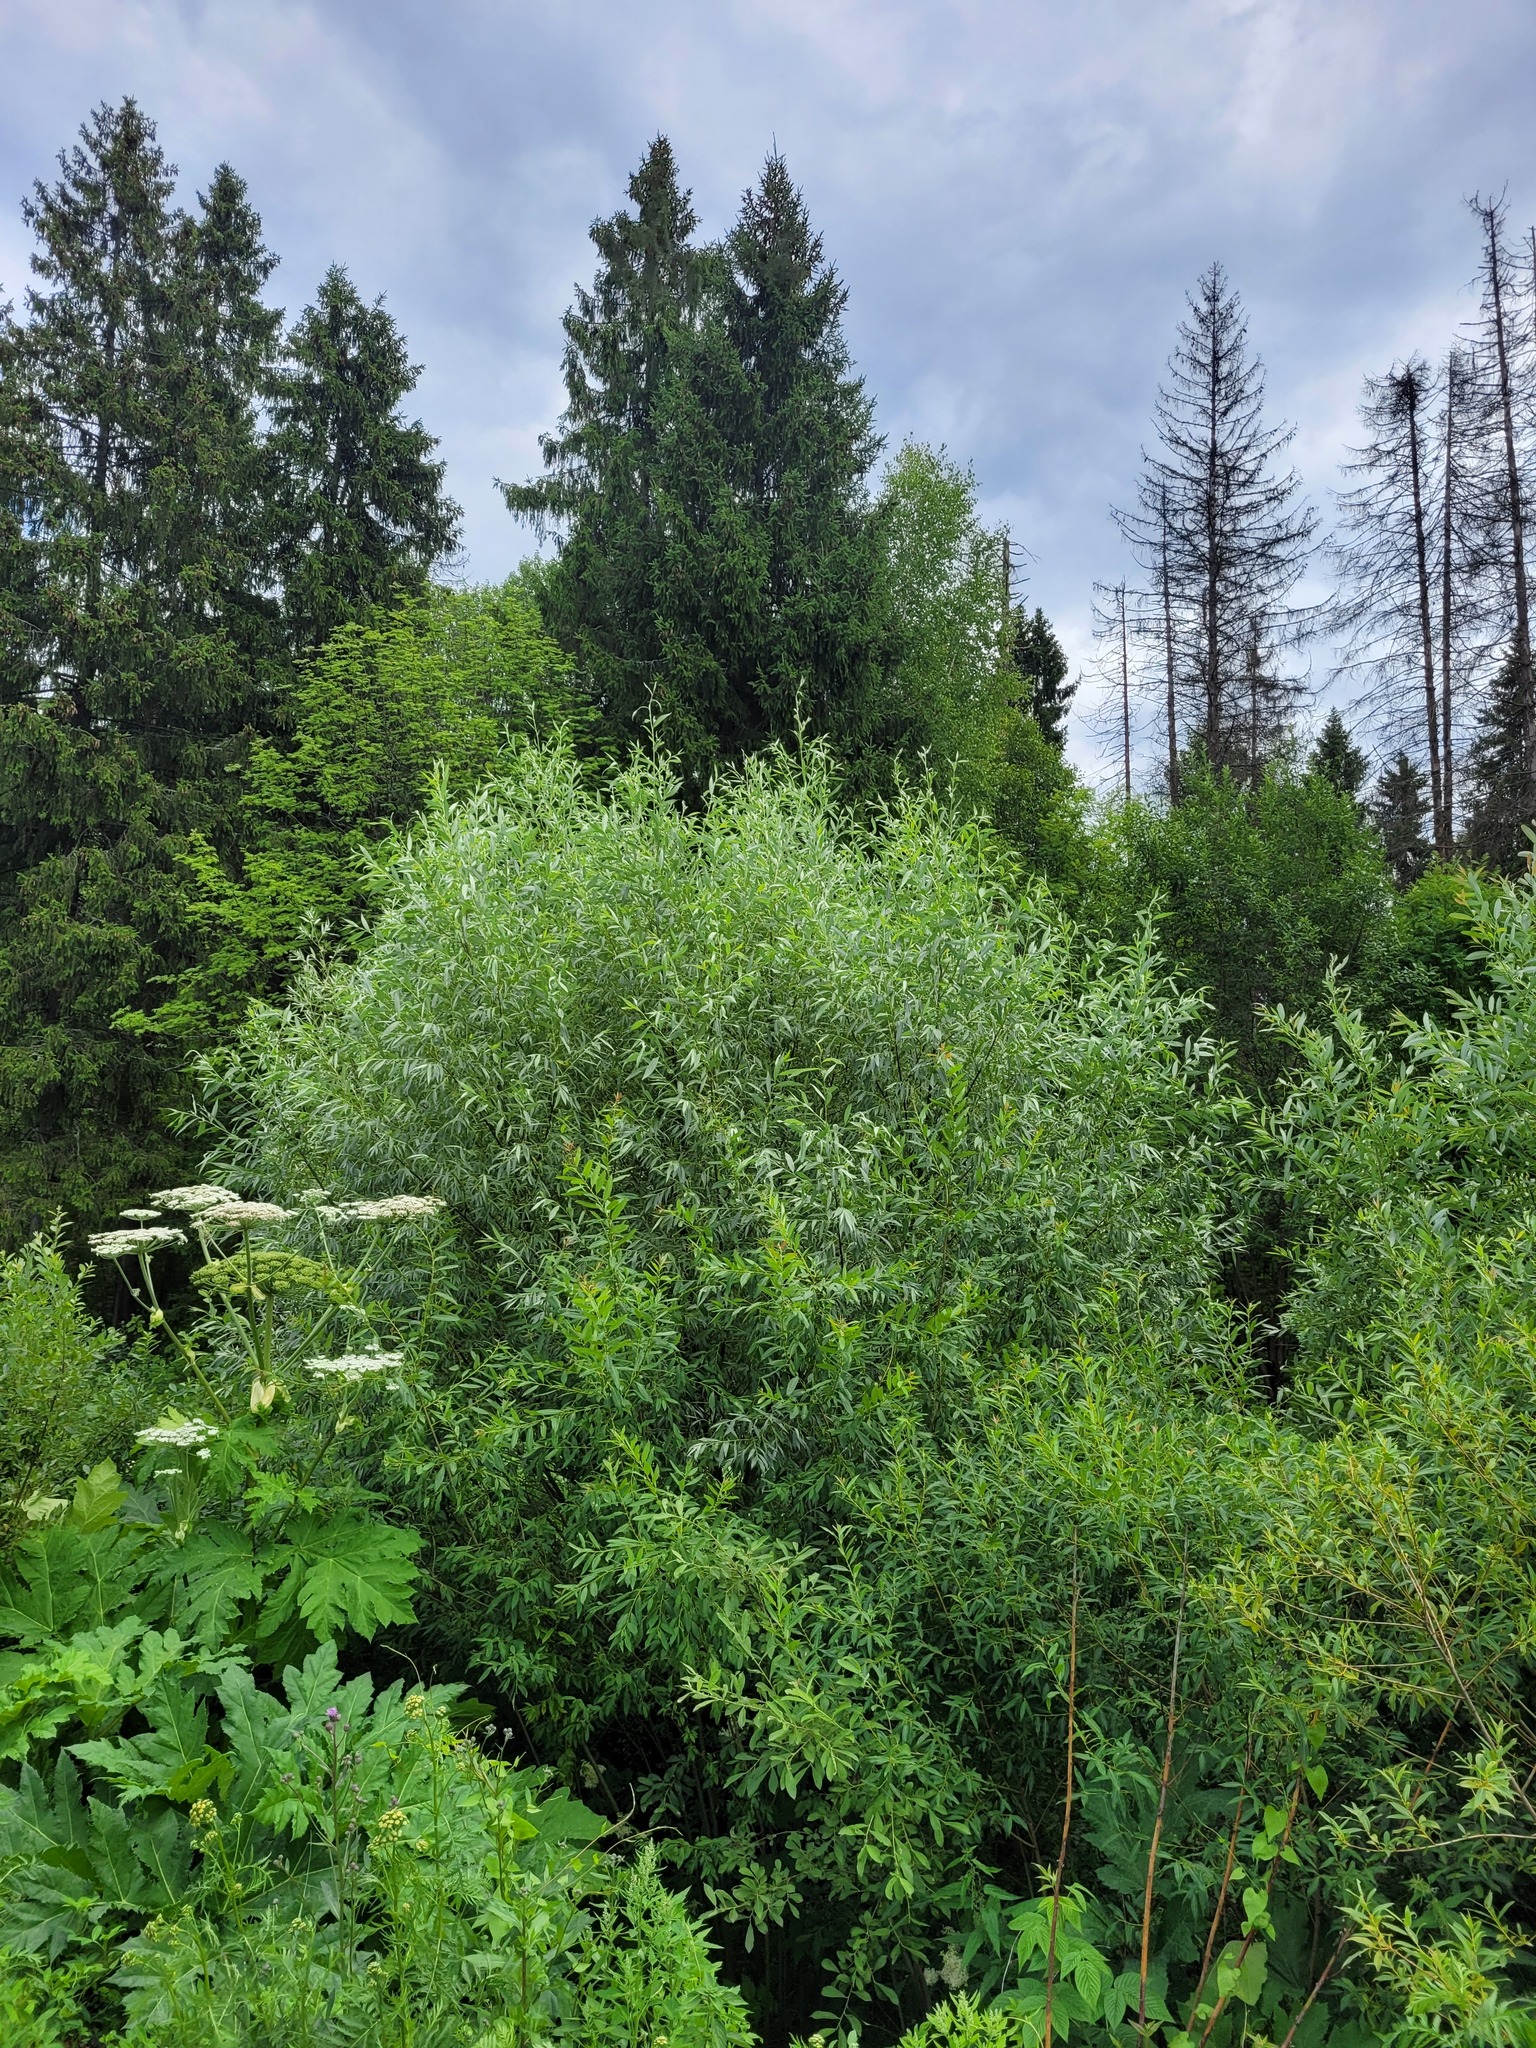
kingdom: Plantae
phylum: Tracheophyta
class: Magnoliopsida
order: Malpighiales
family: Salicaceae
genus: Salix
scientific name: Salix alba
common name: White willow
